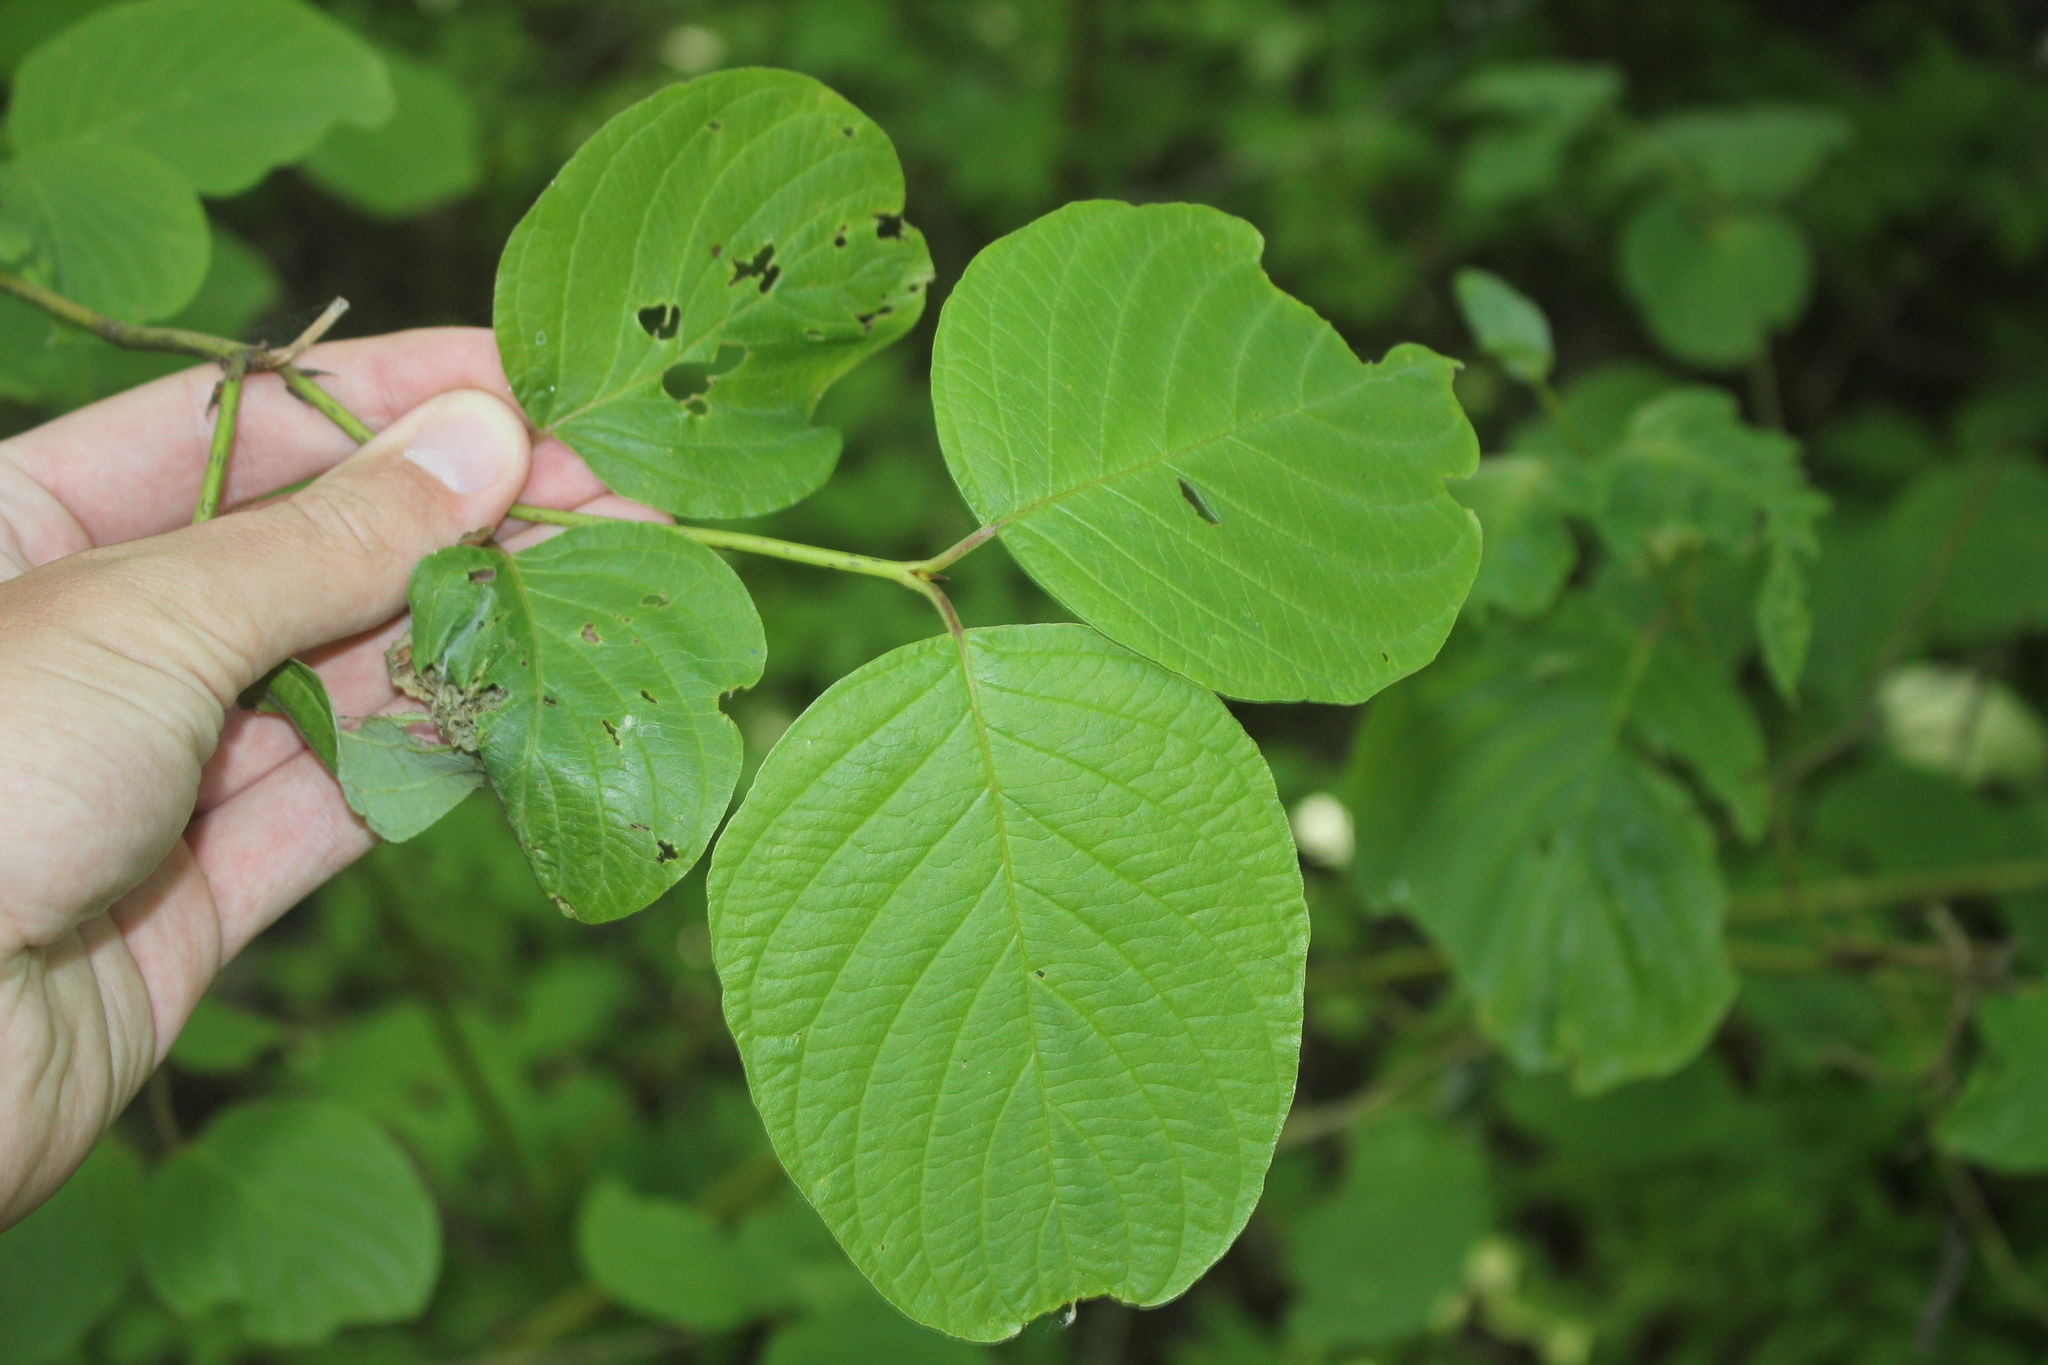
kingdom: Plantae
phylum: Tracheophyta
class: Magnoliopsida
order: Cornales
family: Cornaceae
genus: Cornus
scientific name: Cornus rugosa
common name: Round-leaf dogwood
